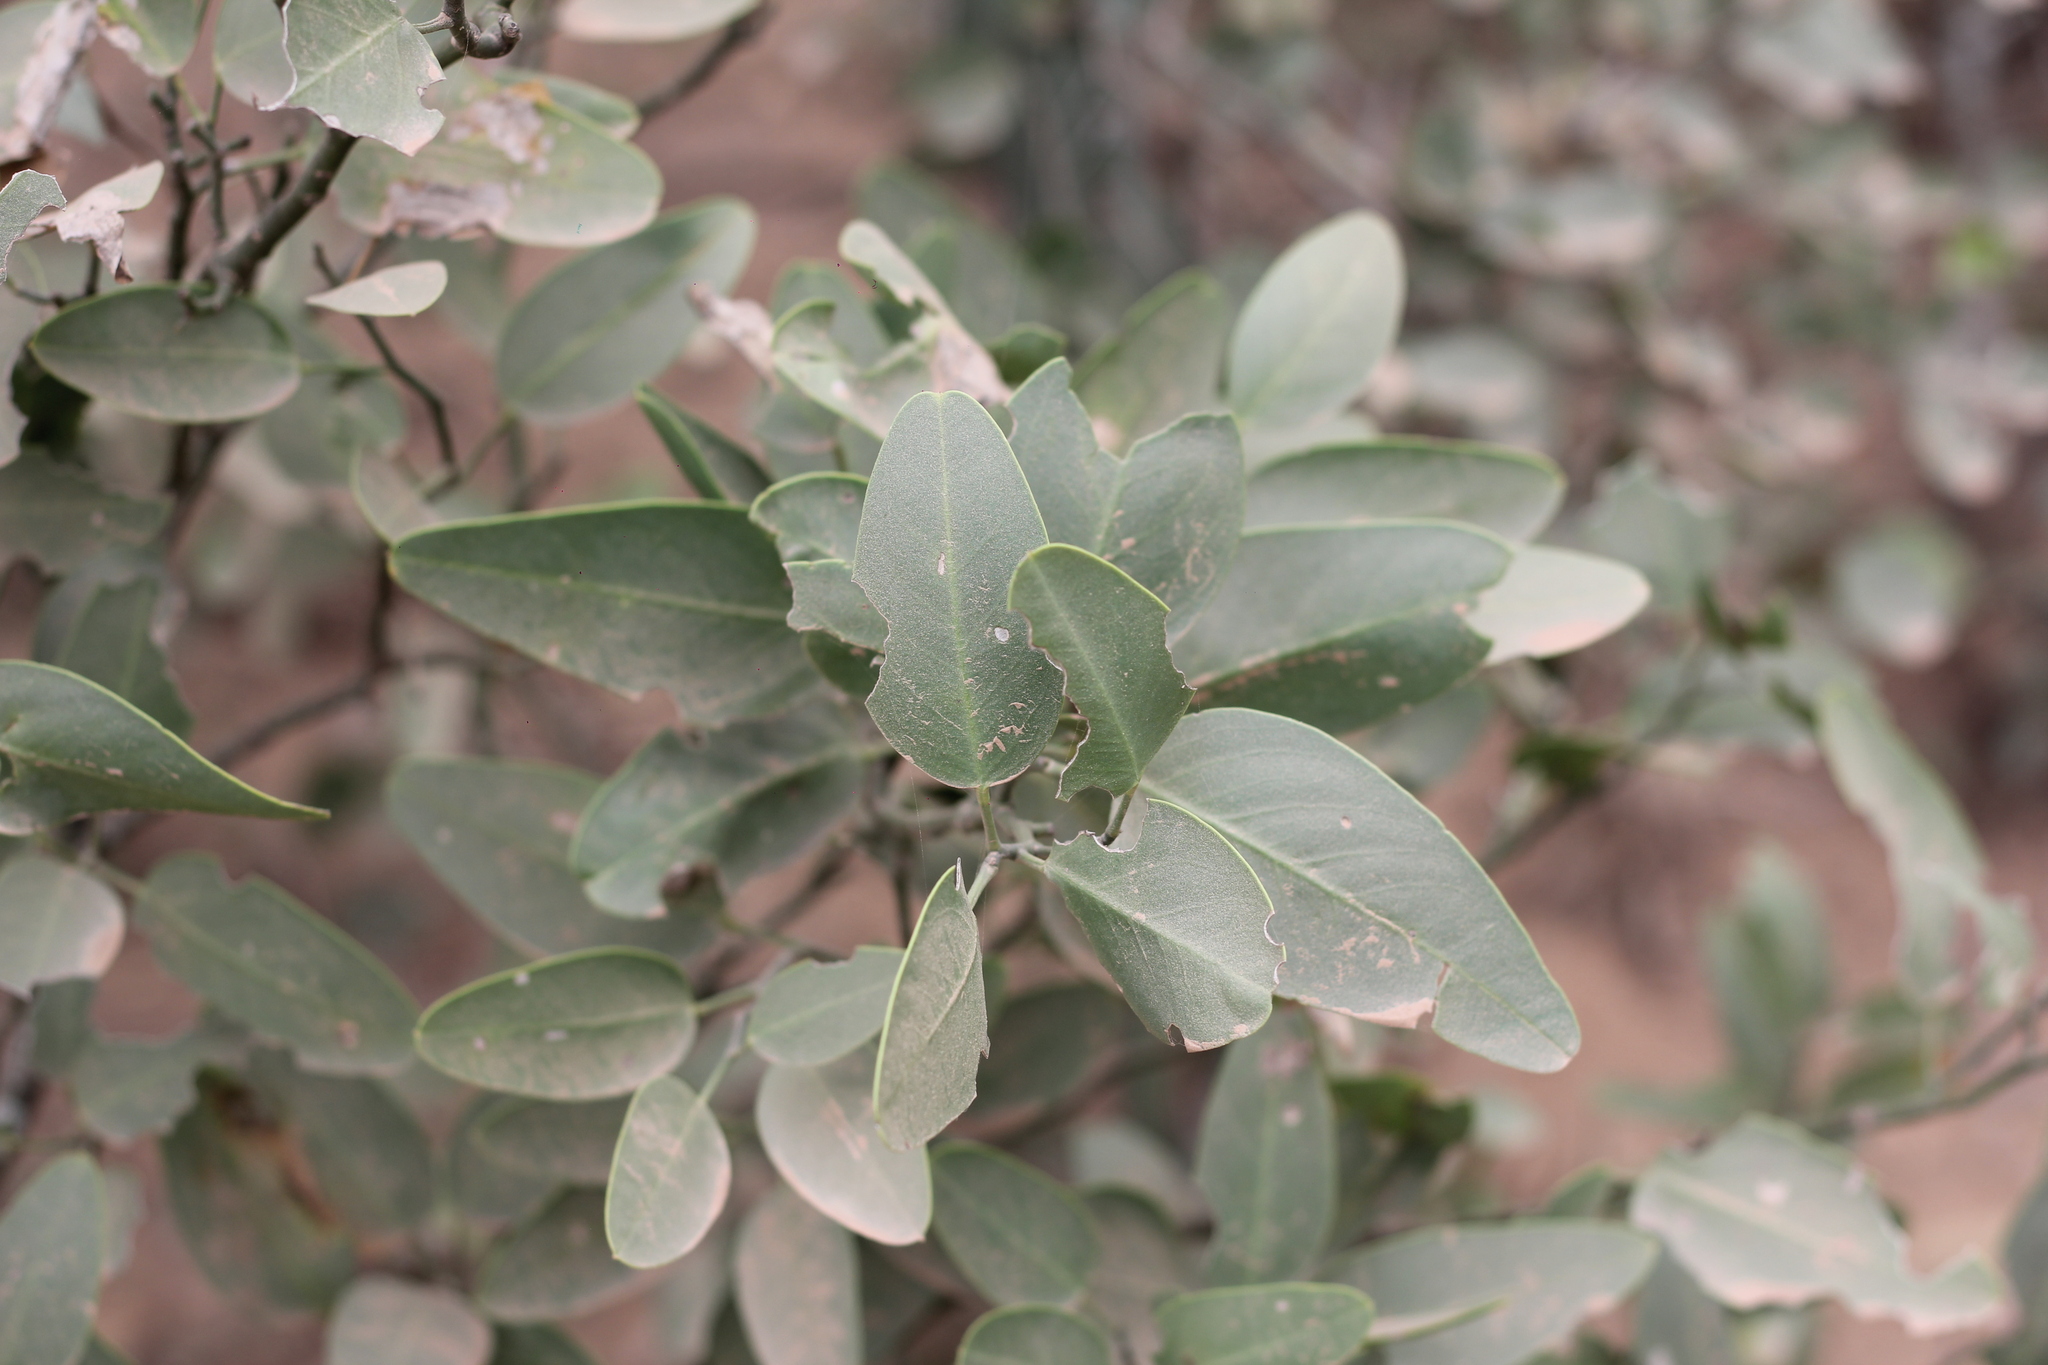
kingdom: Plantae
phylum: Tracheophyta
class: Magnoliopsida
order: Brassicales
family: Capparaceae
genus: Anisocapparis
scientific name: Anisocapparis speciosa
